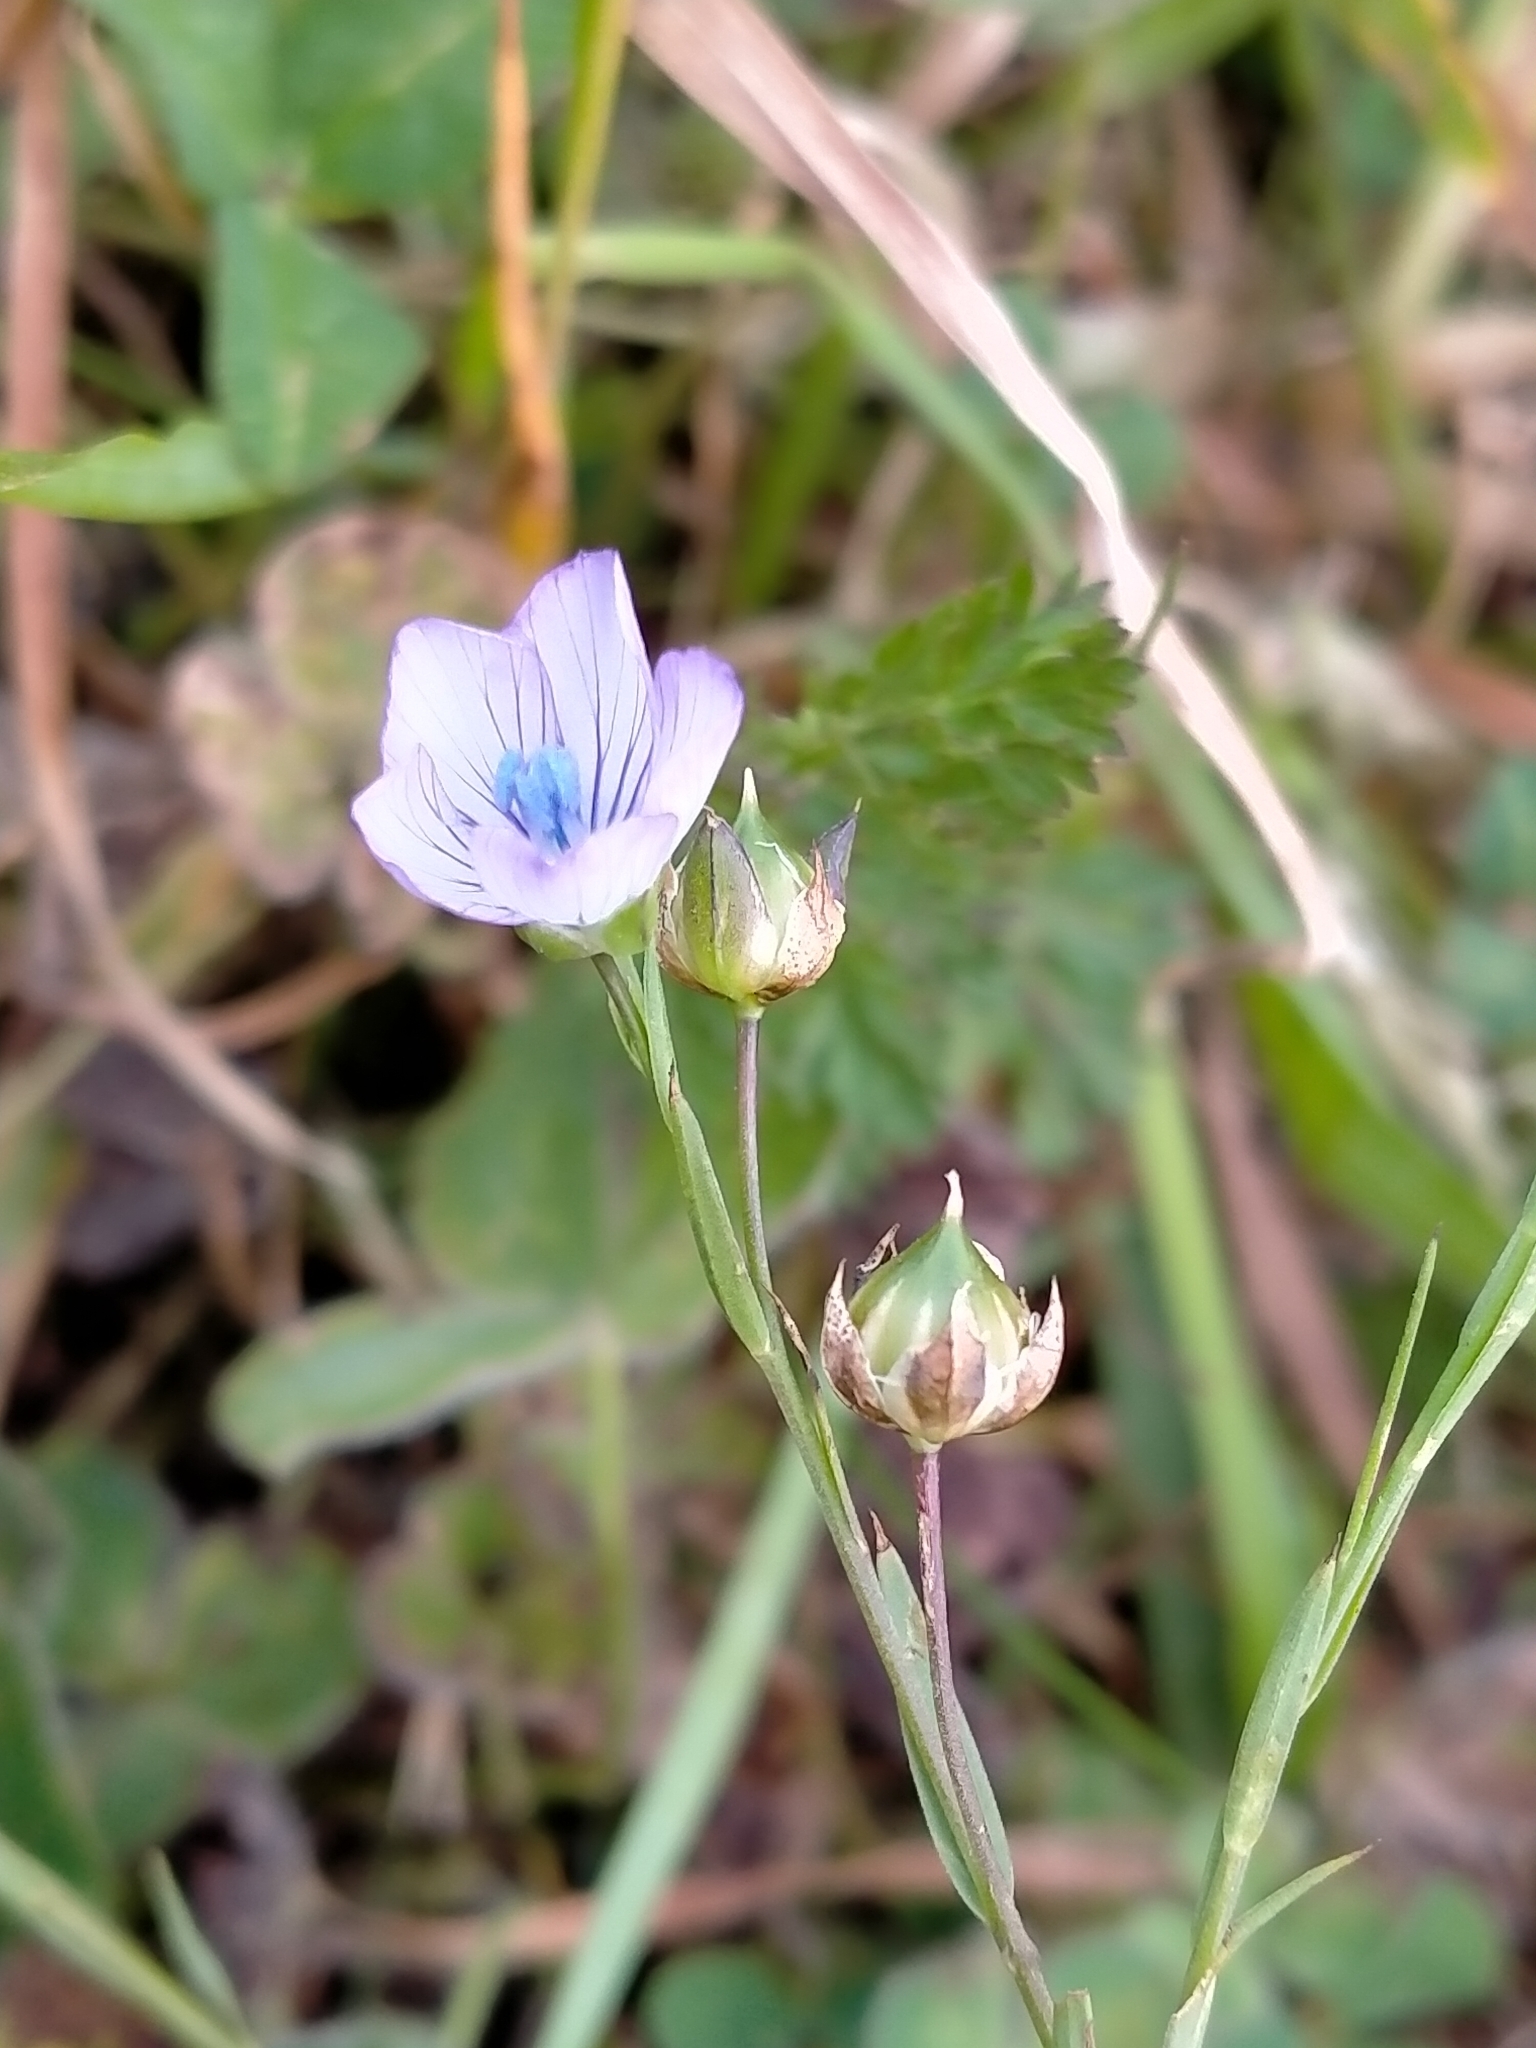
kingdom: Plantae
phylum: Tracheophyta
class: Magnoliopsida
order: Malpighiales
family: Linaceae
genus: Linum
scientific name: Linum bienne
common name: Pale flax
